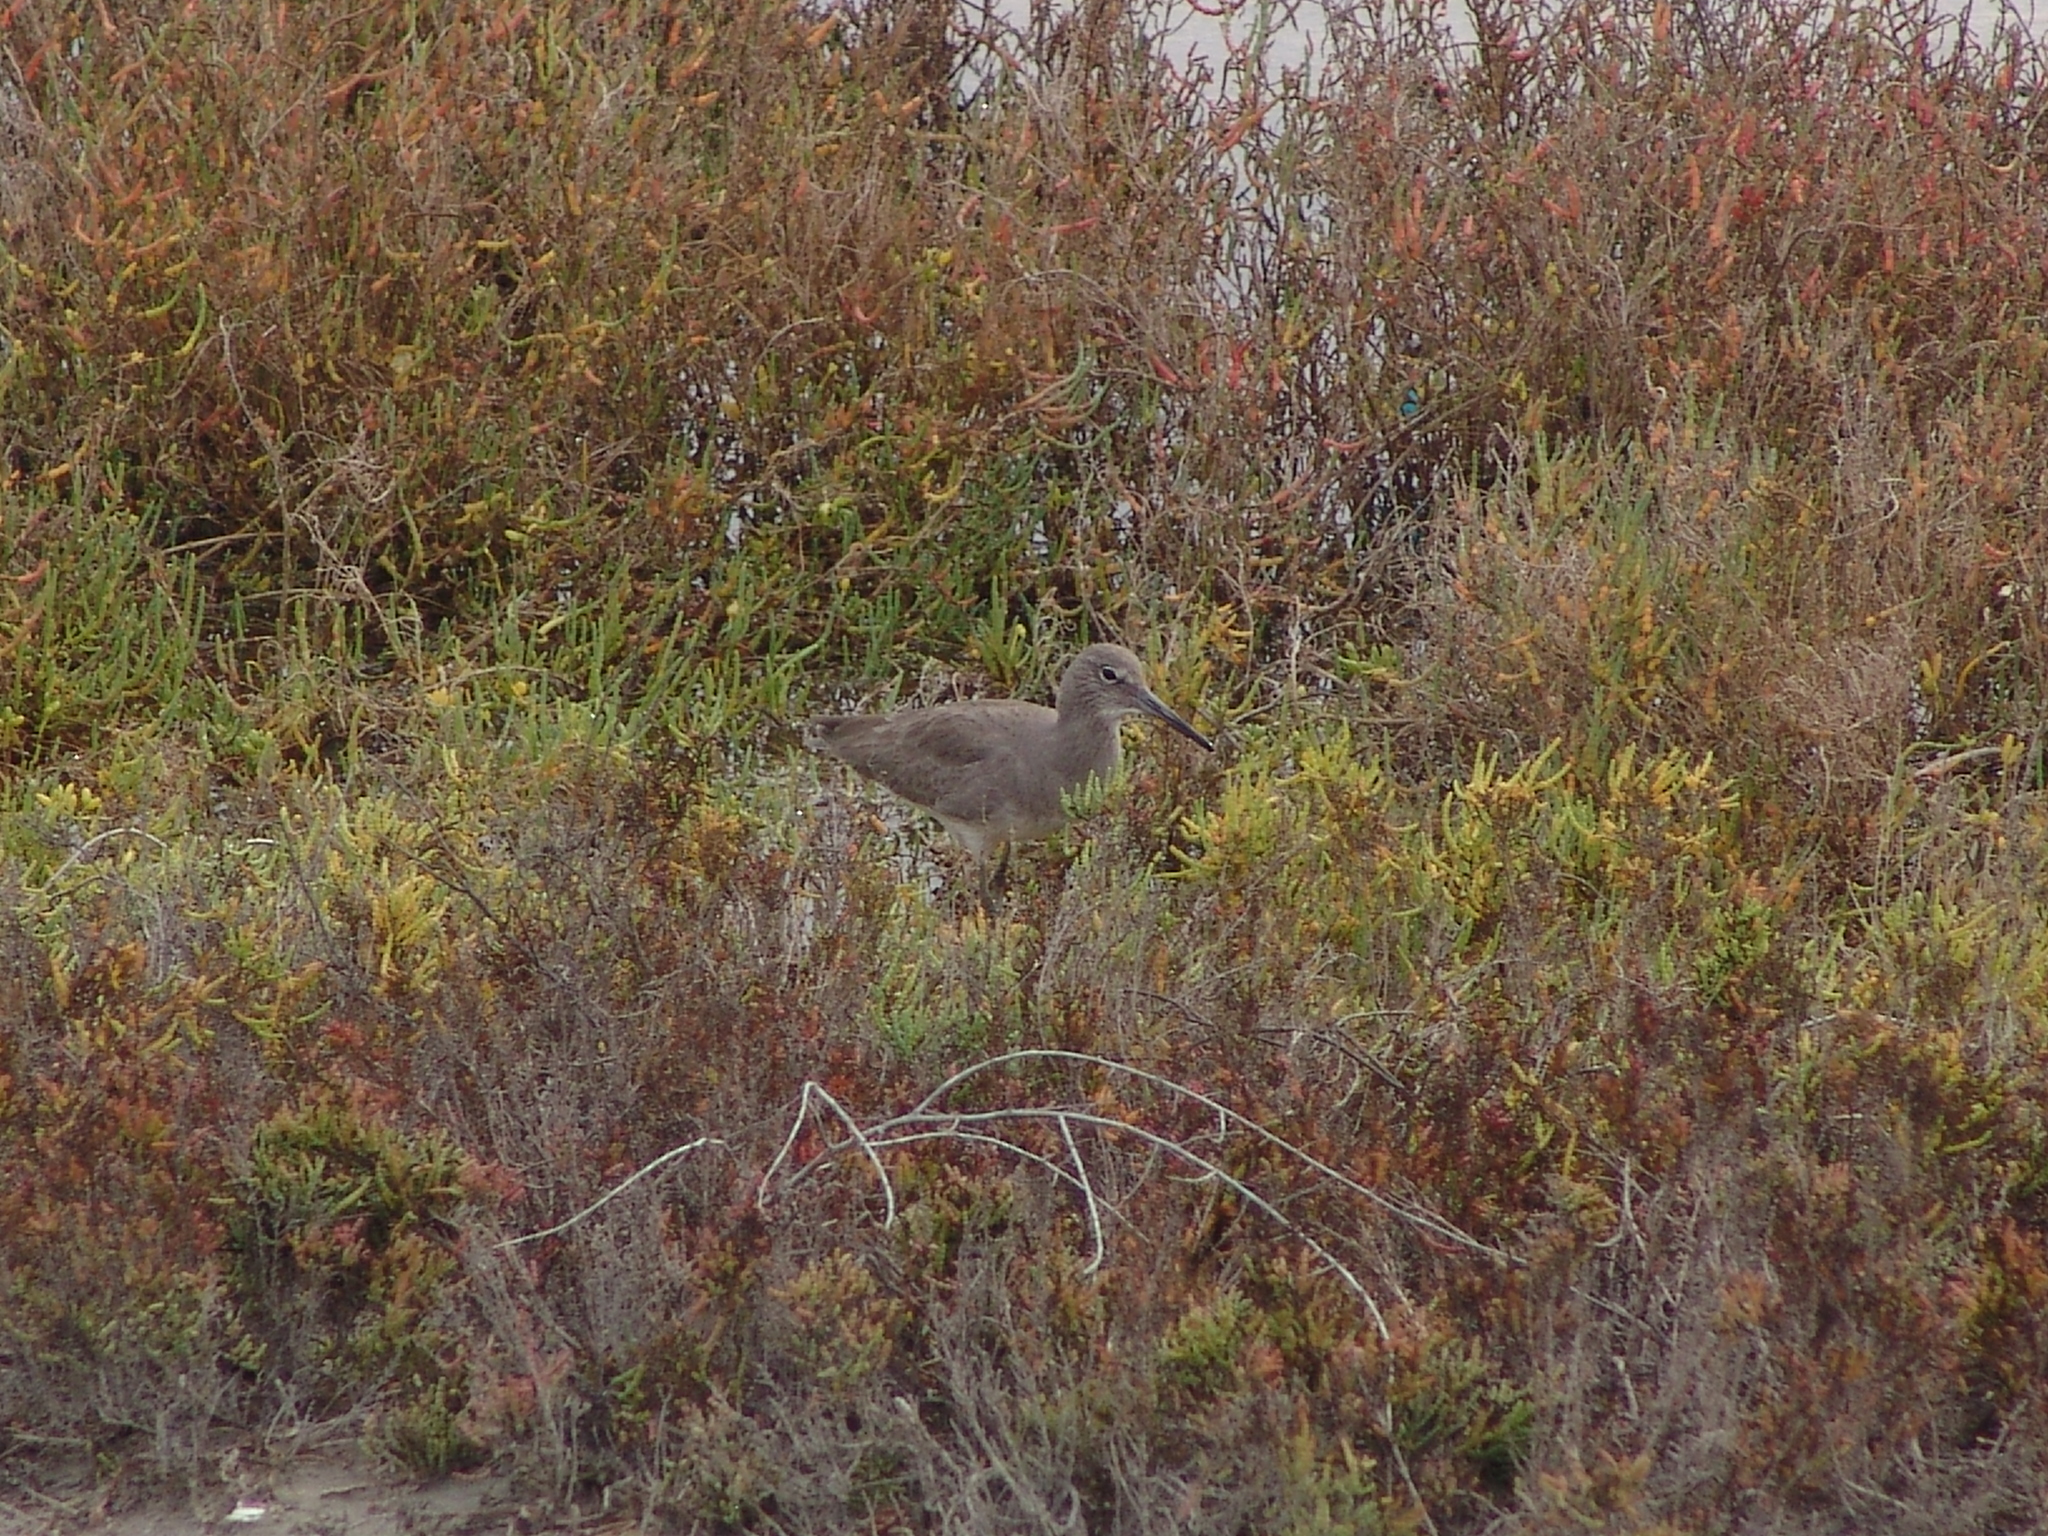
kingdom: Animalia
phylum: Chordata
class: Aves
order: Charadriiformes
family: Scolopacidae
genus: Tringa
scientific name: Tringa semipalmata
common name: Willet
